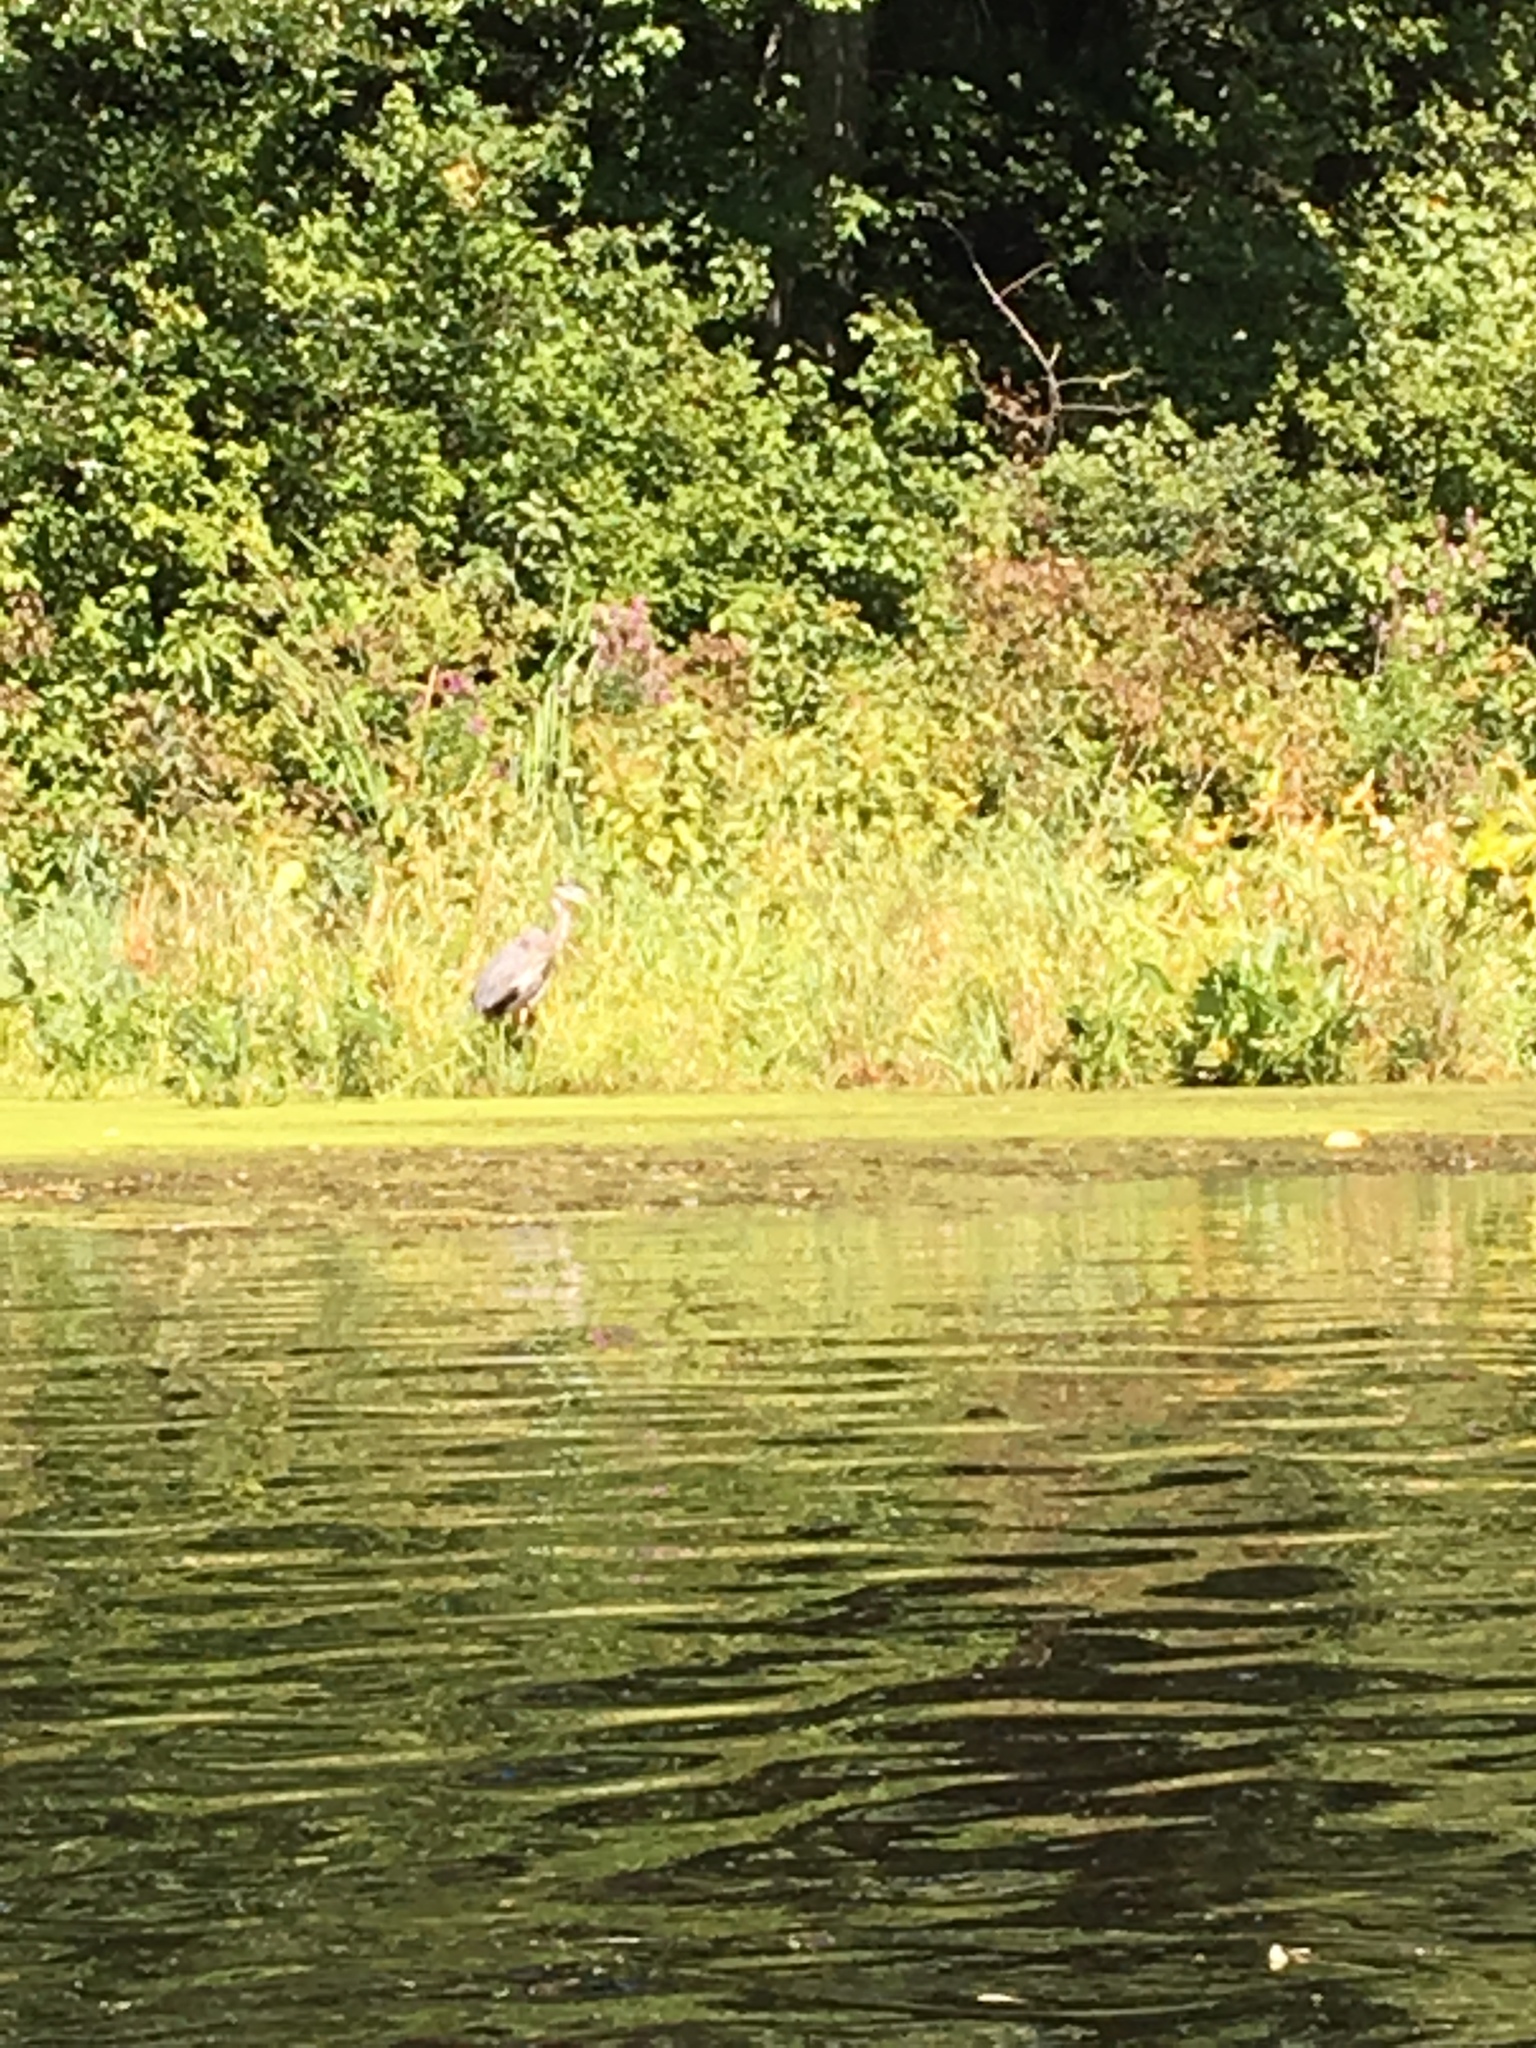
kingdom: Animalia
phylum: Chordata
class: Aves
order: Pelecaniformes
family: Ardeidae
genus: Ardea
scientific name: Ardea herodias
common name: Great blue heron
